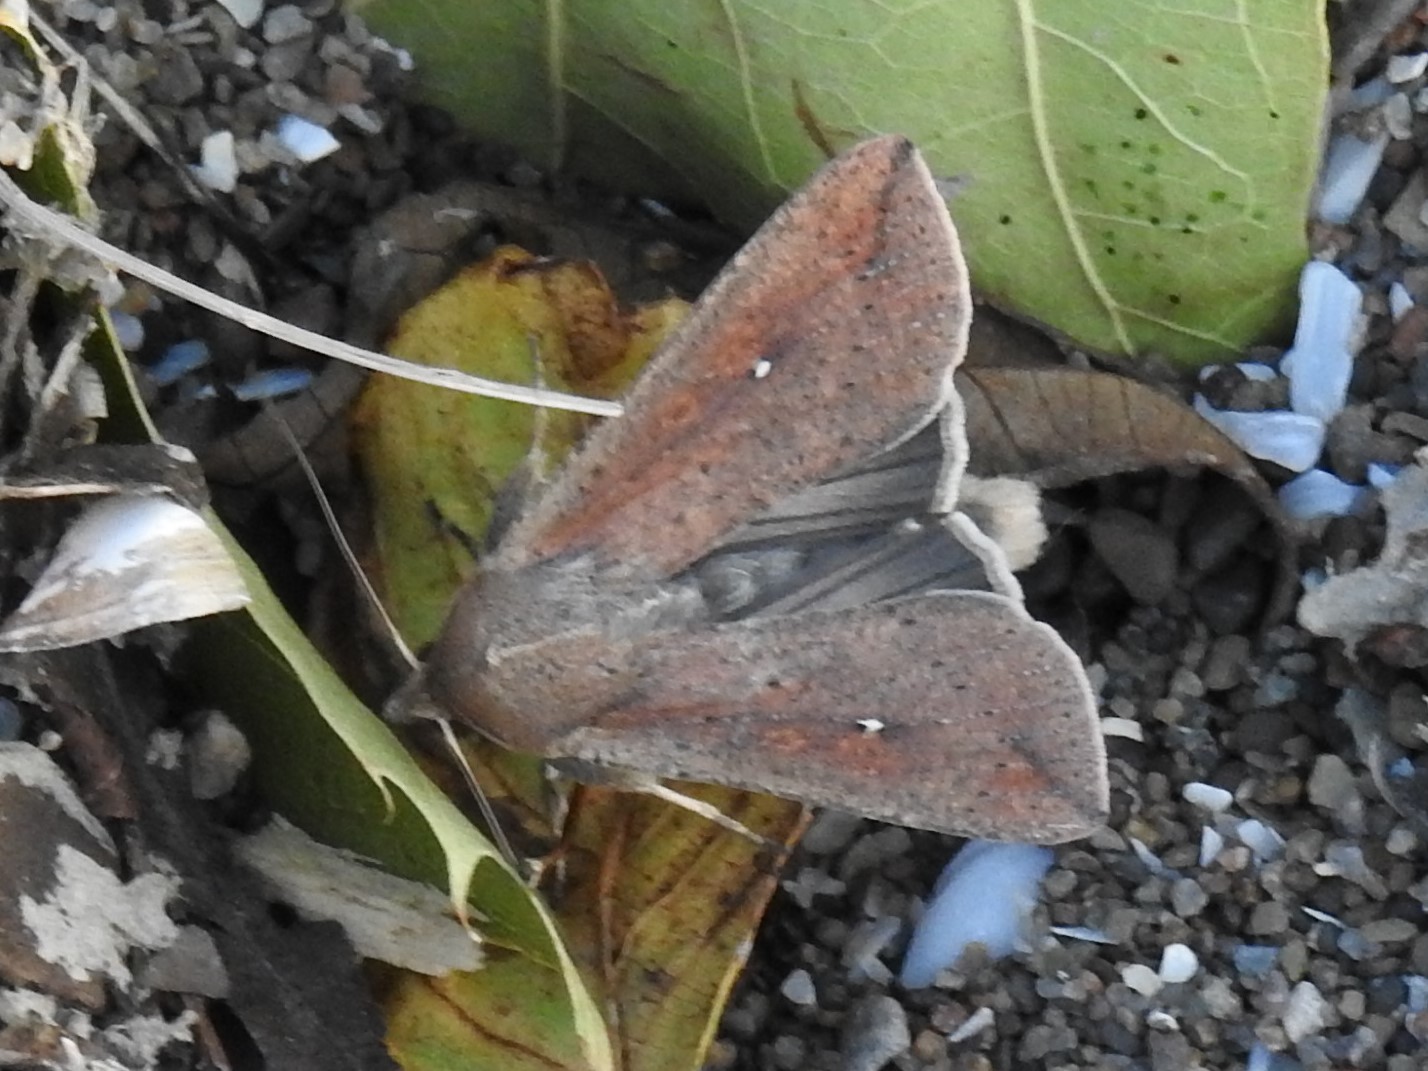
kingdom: Animalia
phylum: Arthropoda
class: Insecta
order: Lepidoptera
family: Noctuidae
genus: Mythimna
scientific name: Mythimna unipuncta
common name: White-speck
